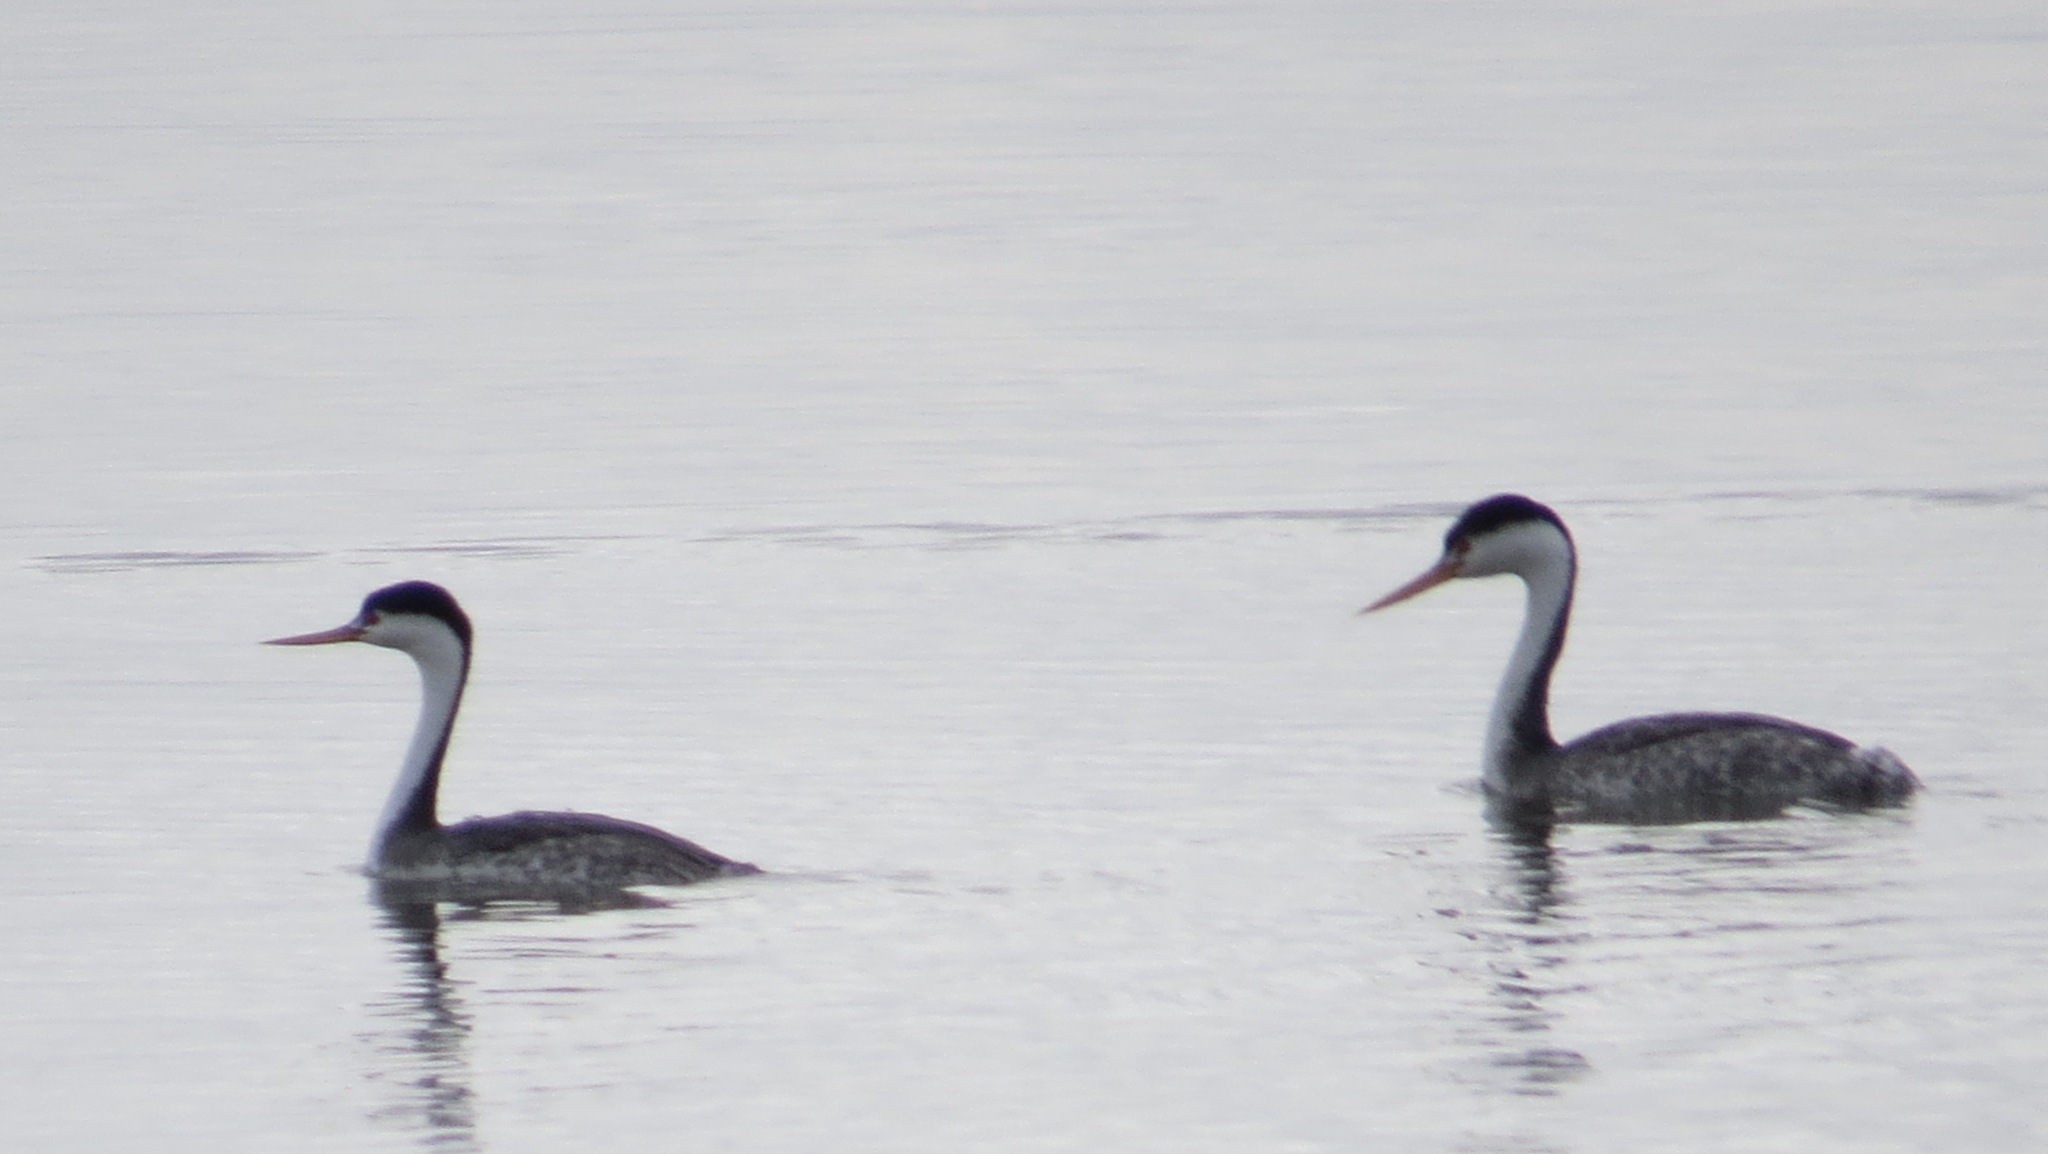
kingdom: Animalia
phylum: Chordata
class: Aves
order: Podicipediformes
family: Podicipedidae
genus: Aechmophorus
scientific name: Aechmophorus clarkii
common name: Clark's grebe
